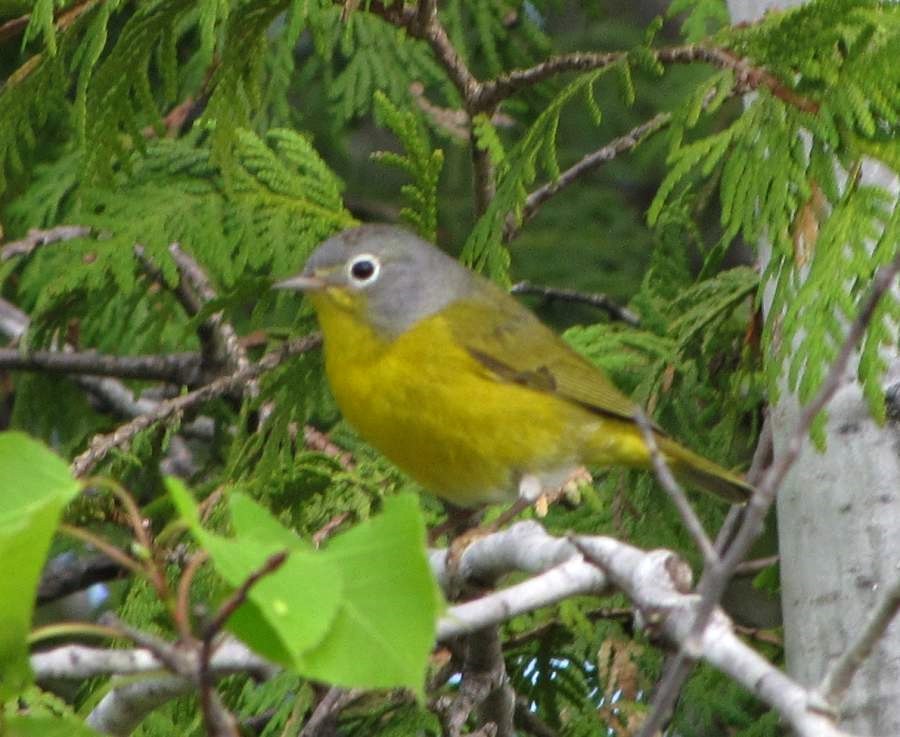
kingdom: Animalia
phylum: Chordata
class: Aves
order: Passeriformes
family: Parulidae
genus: Leiothlypis
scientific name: Leiothlypis ruficapilla
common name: Nashville warbler
